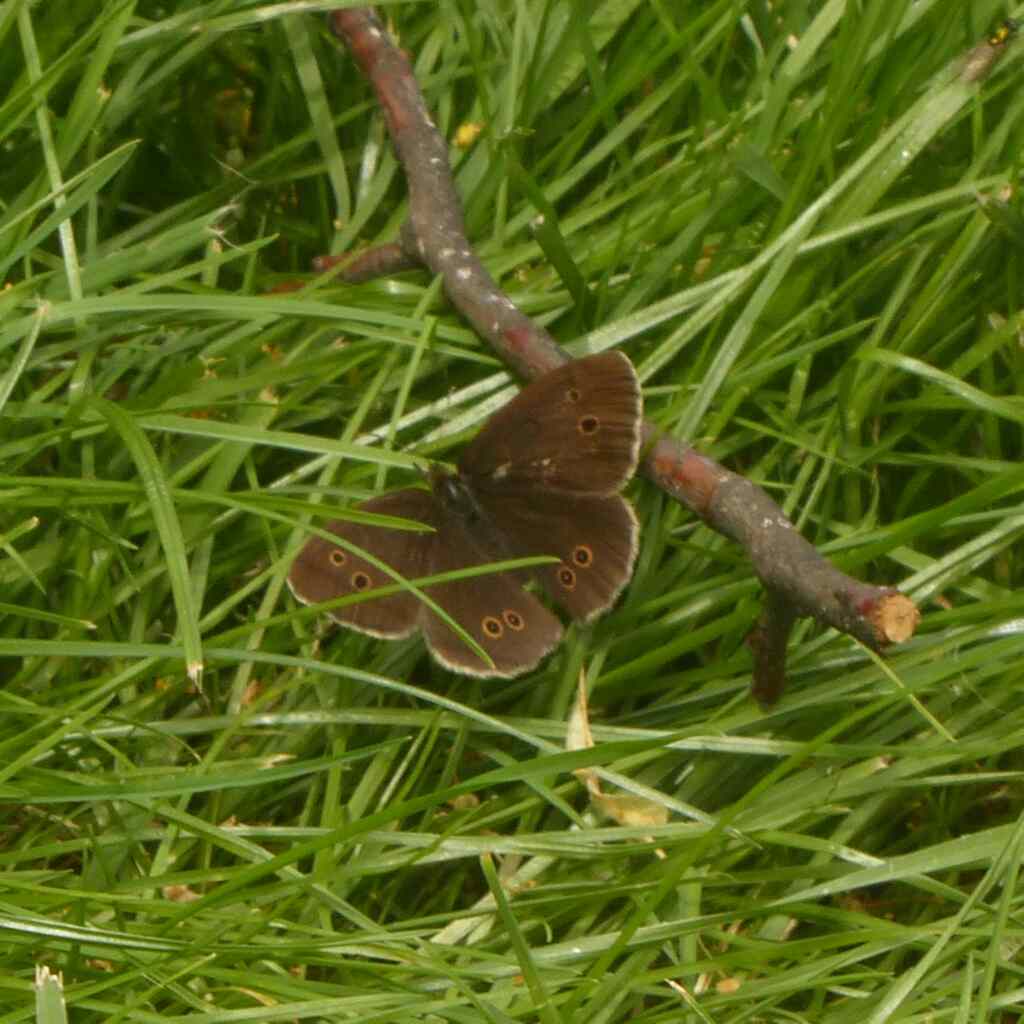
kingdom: Animalia
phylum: Arthropoda
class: Insecta
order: Lepidoptera
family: Nymphalidae
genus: Aphantopus
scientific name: Aphantopus hyperantus
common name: Ringlet
